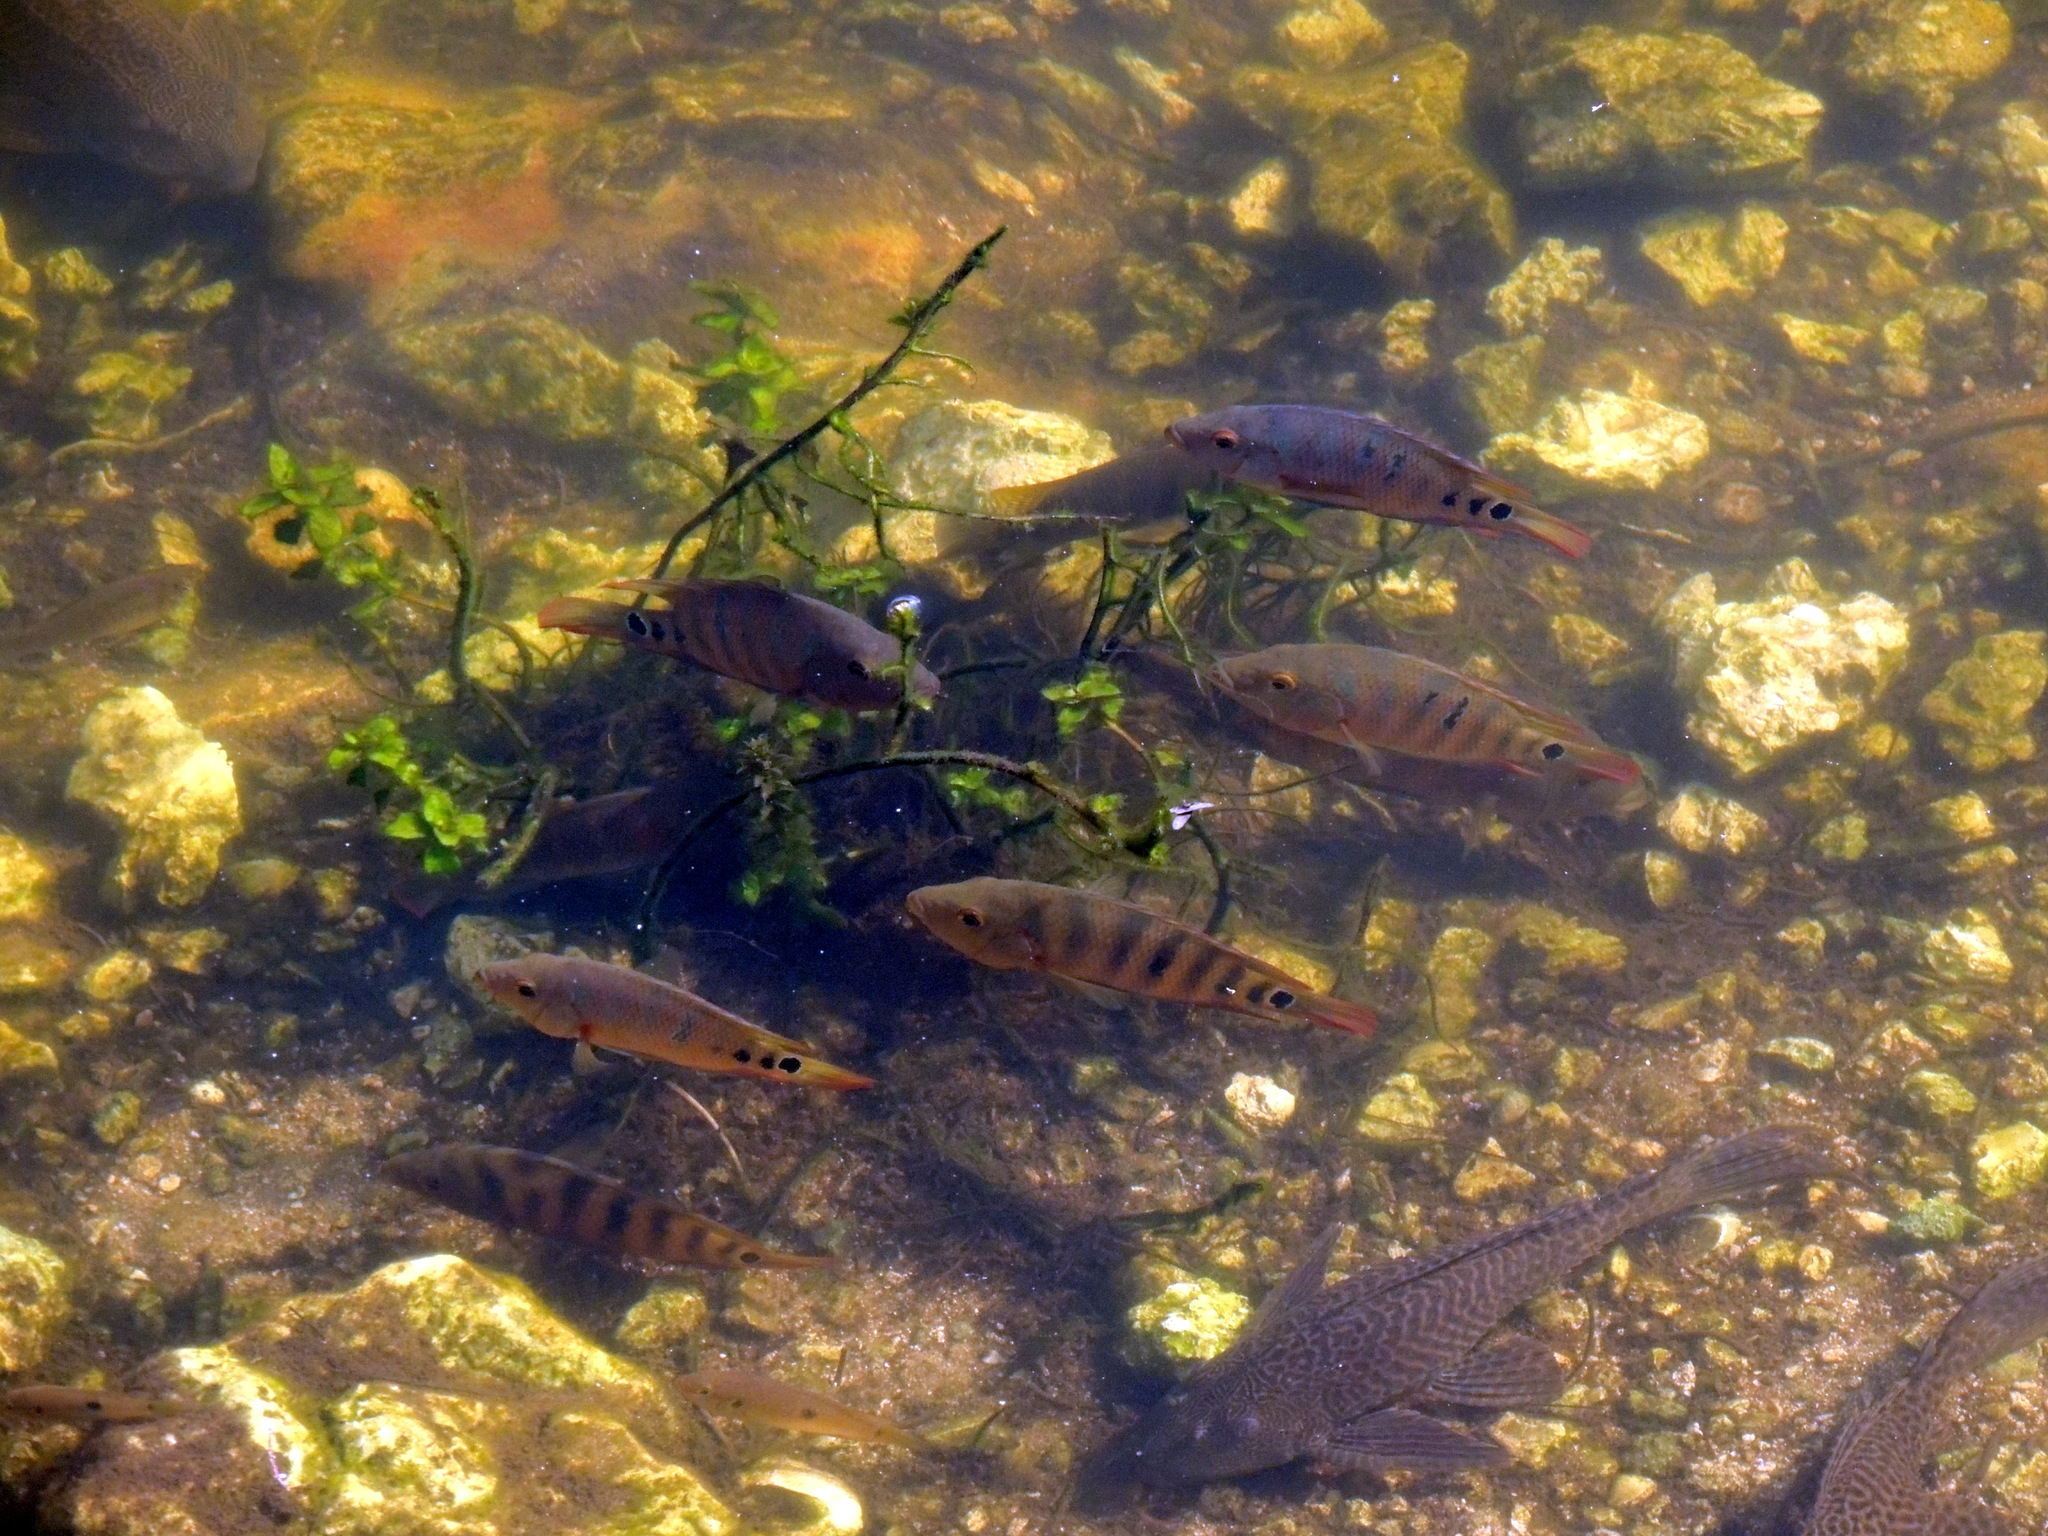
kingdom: Animalia
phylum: Chordata
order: Perciformes
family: Cichlidae
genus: Mayaheros
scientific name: Mayaheros urophthalmus
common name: Mayan cichlid
